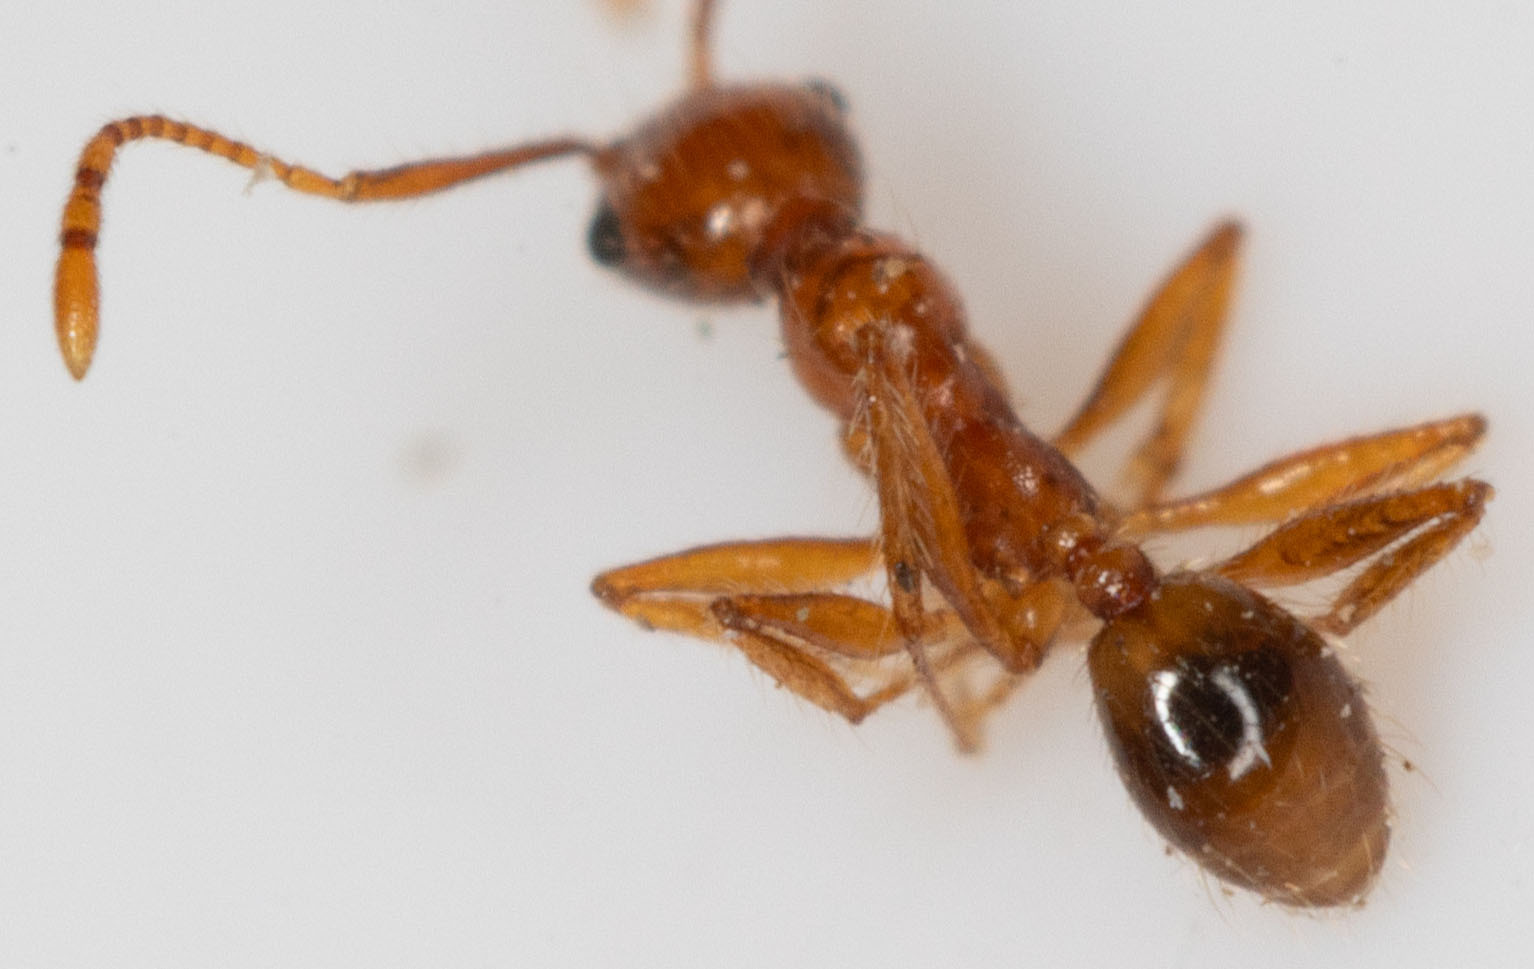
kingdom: Animalia
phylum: Arthropoda
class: Insecta
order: Hymenoptera
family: Formicidae
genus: Pheidole
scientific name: Pheidole hyatti
